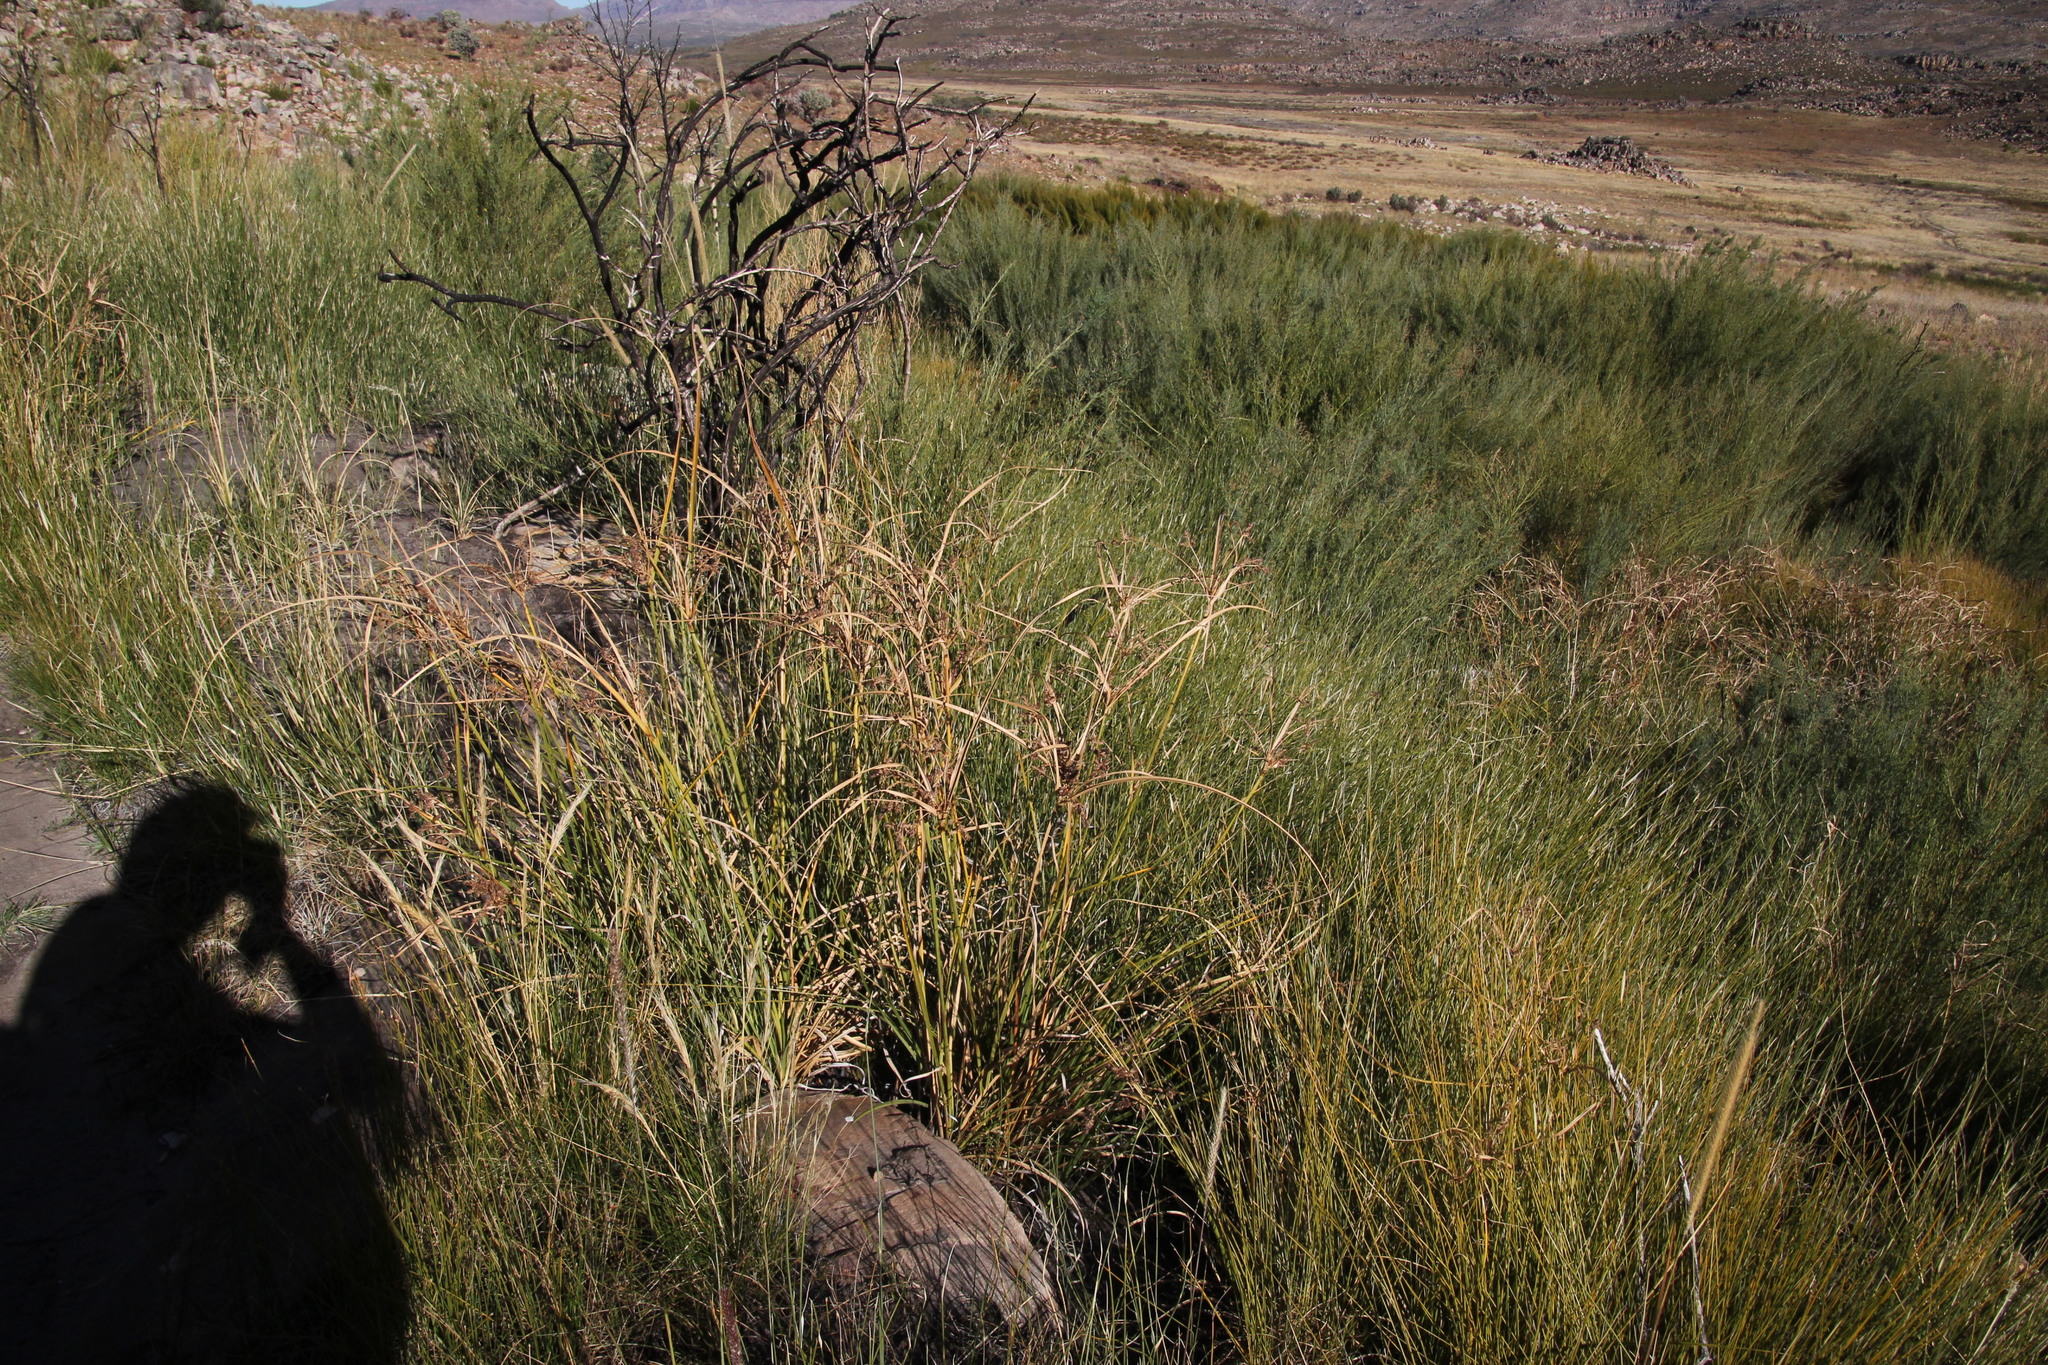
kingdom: Plantae
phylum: Tracheophyta
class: Liliopsida
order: Poales
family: Cyperaceae
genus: Cyperus
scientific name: Cyperus thunbergii
